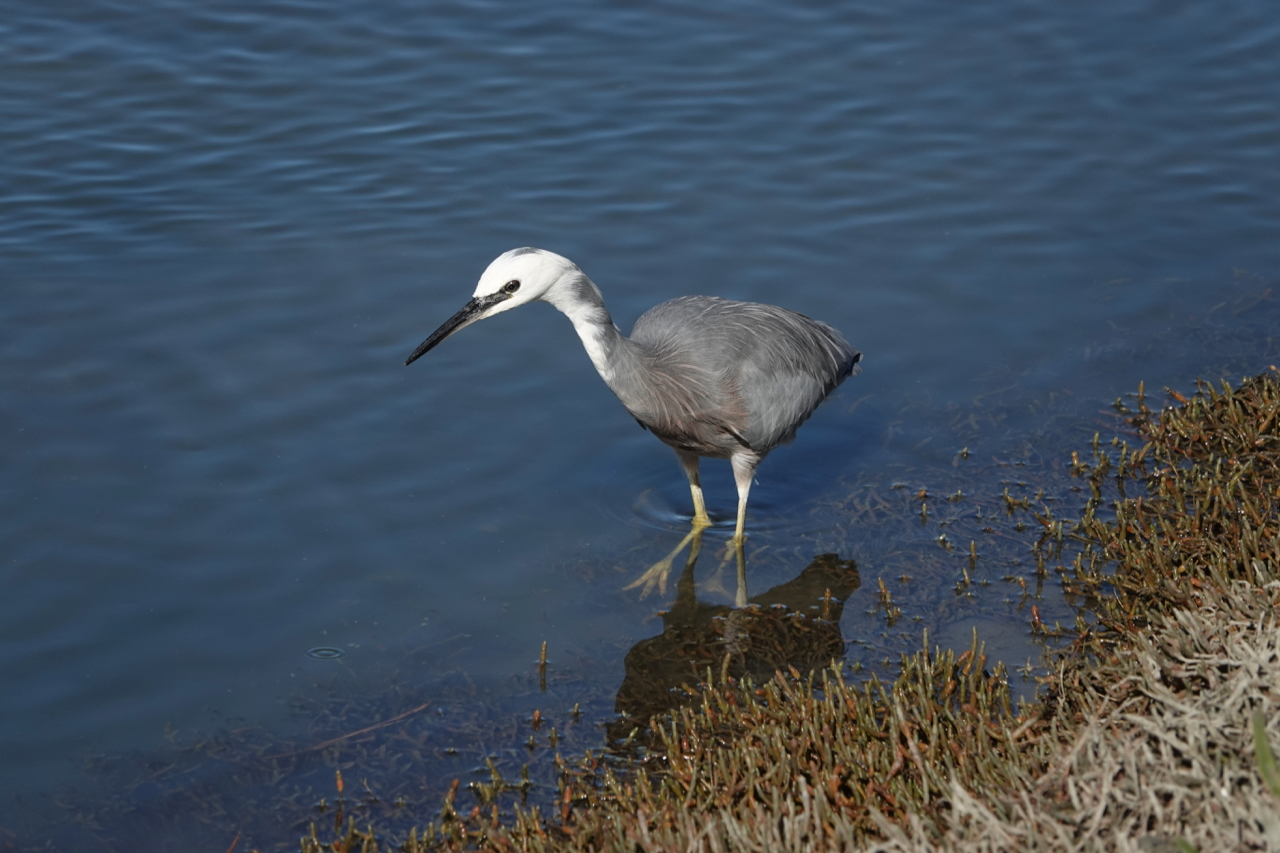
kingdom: Animalia
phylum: Chordata
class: Aves
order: Pelecaniformes
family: Ardeidae
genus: Egretta
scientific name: Egretta novaehollandiae
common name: White-faced heron
